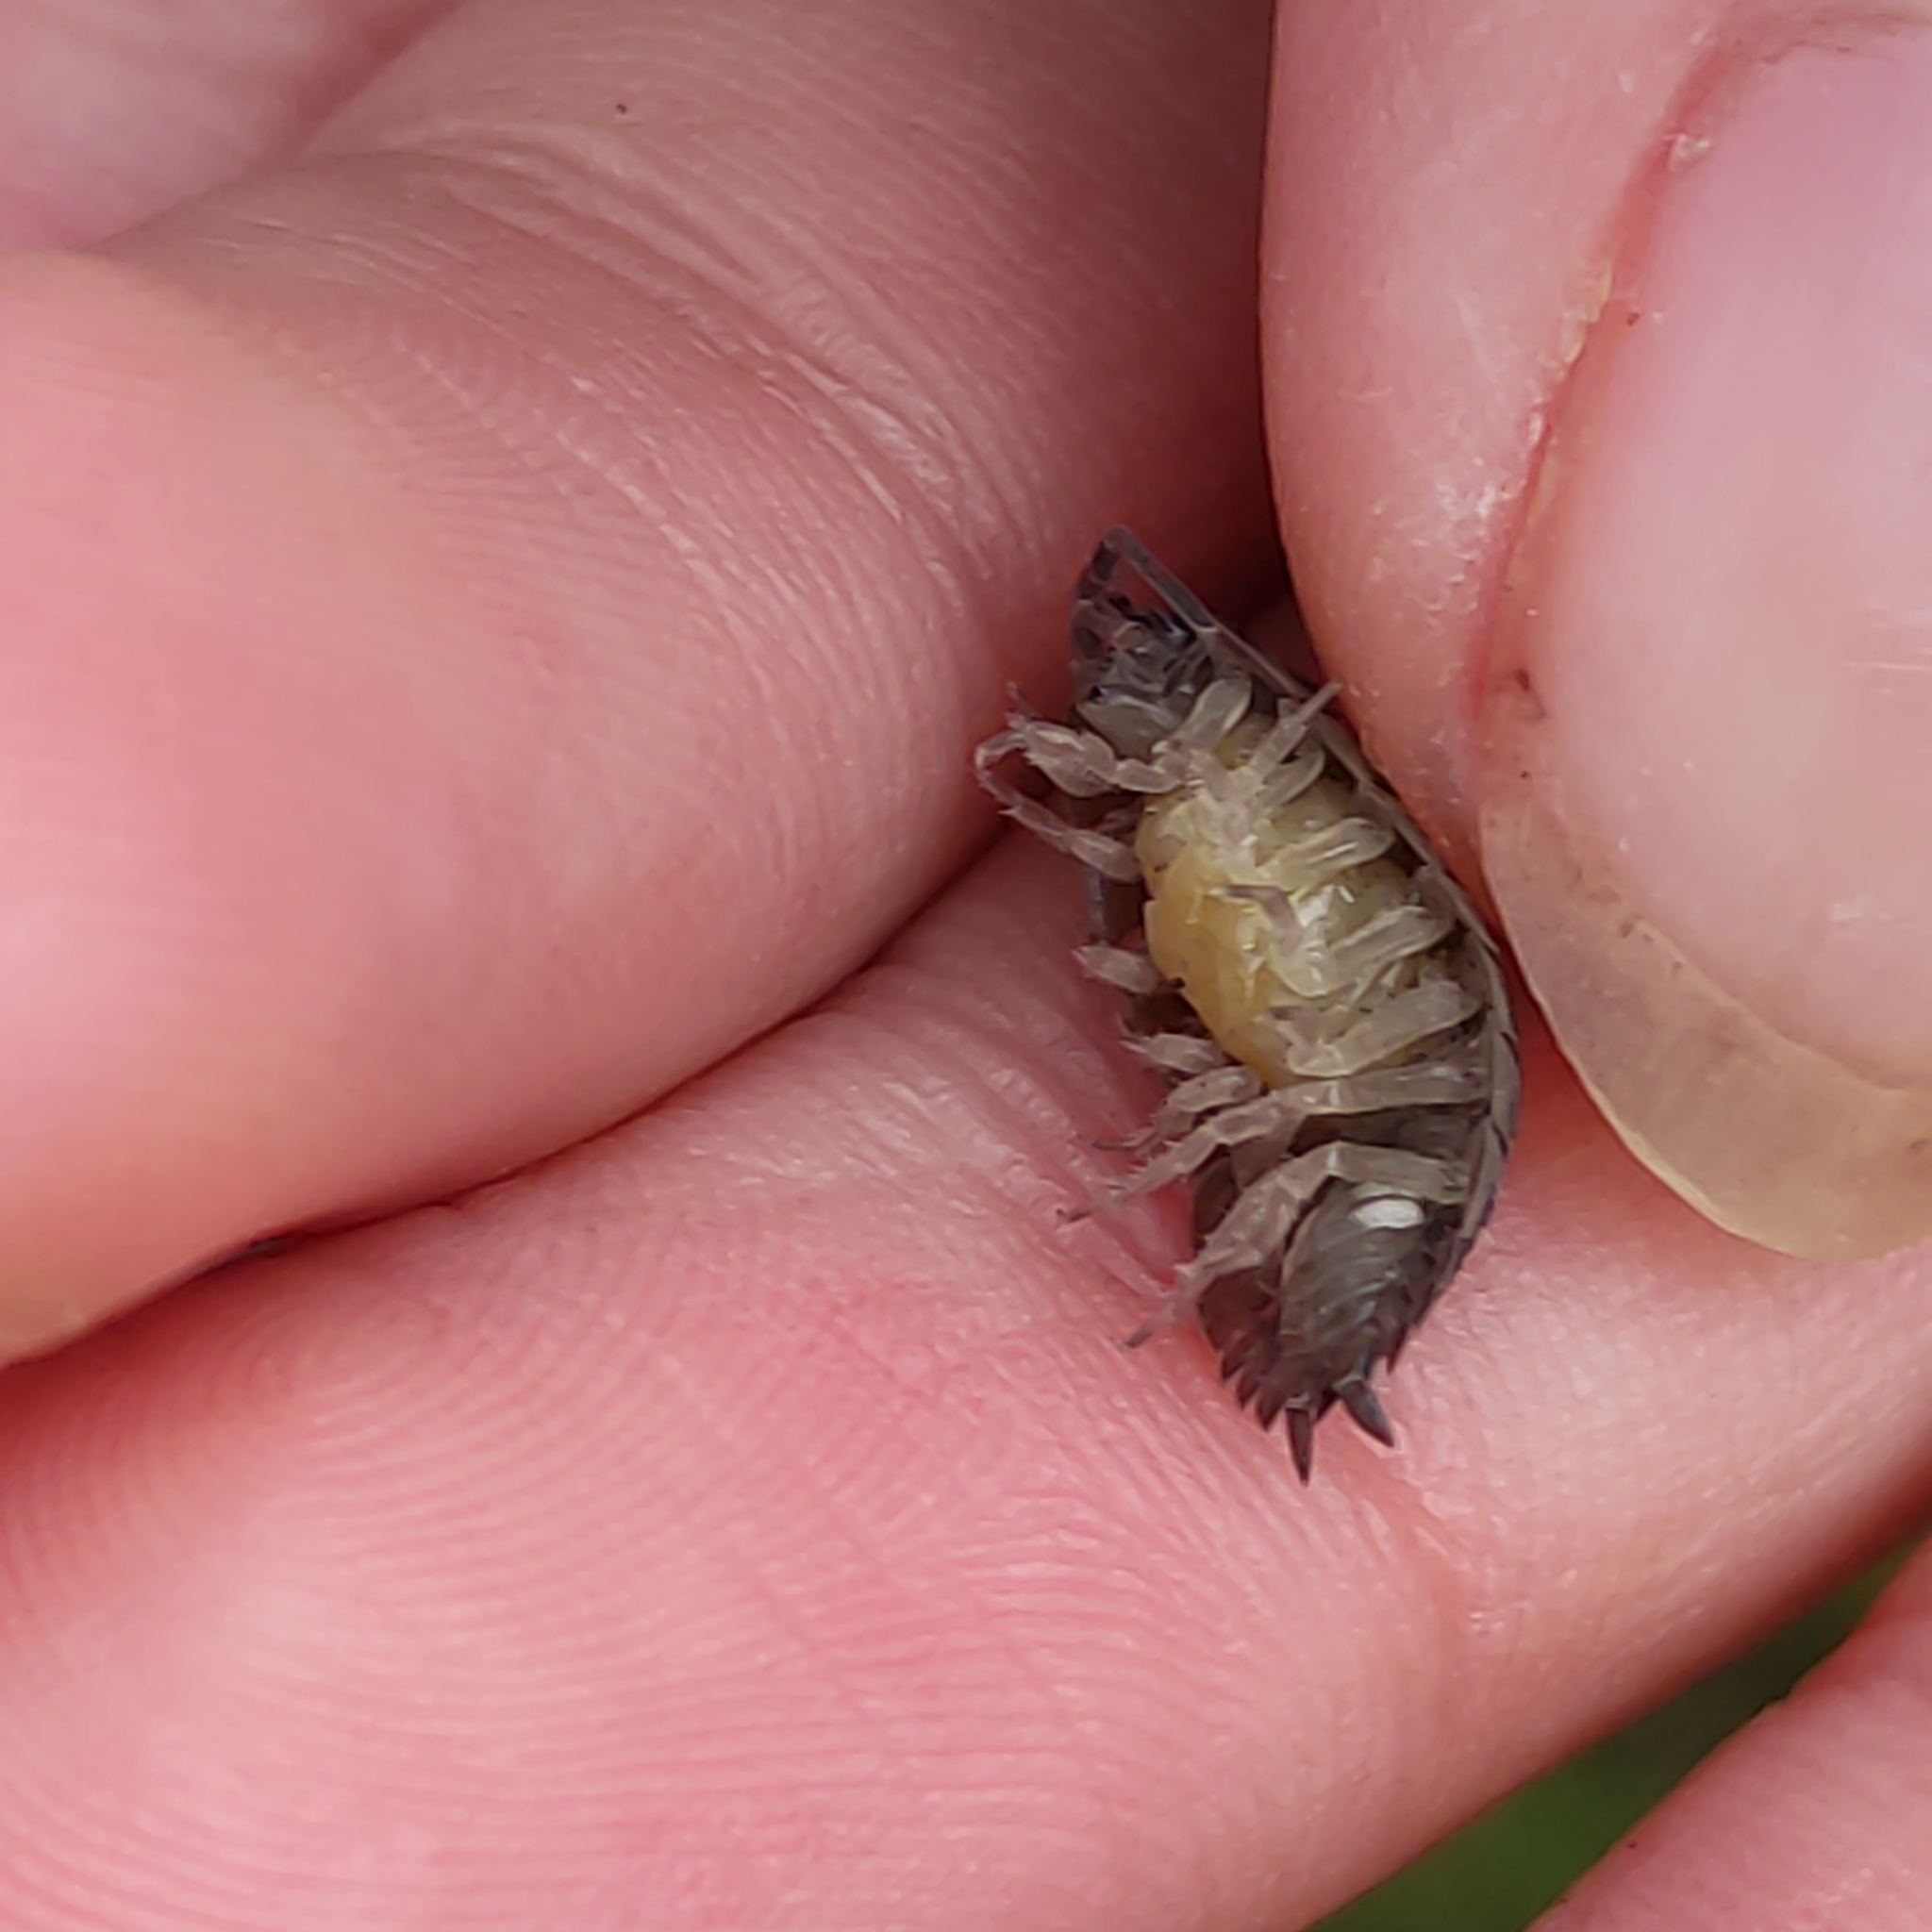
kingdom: Animalia
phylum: Arthropoda
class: Malacostraca
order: Isopoda
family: Porcellionidae
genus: Porcellio
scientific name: Porcellio scaber
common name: Common rough woodlouse
